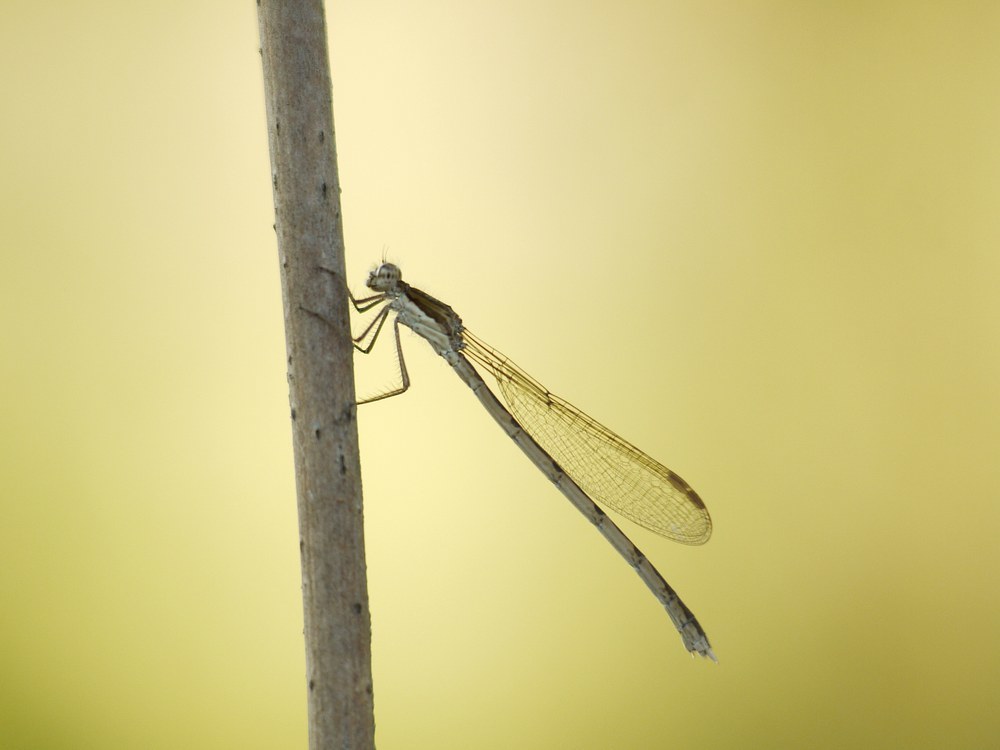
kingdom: Animalia
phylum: Arthropoda
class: Insecta
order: Odonata
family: Lestidae
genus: Sympecma
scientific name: Sympecma fusca
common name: Common winter damsel
